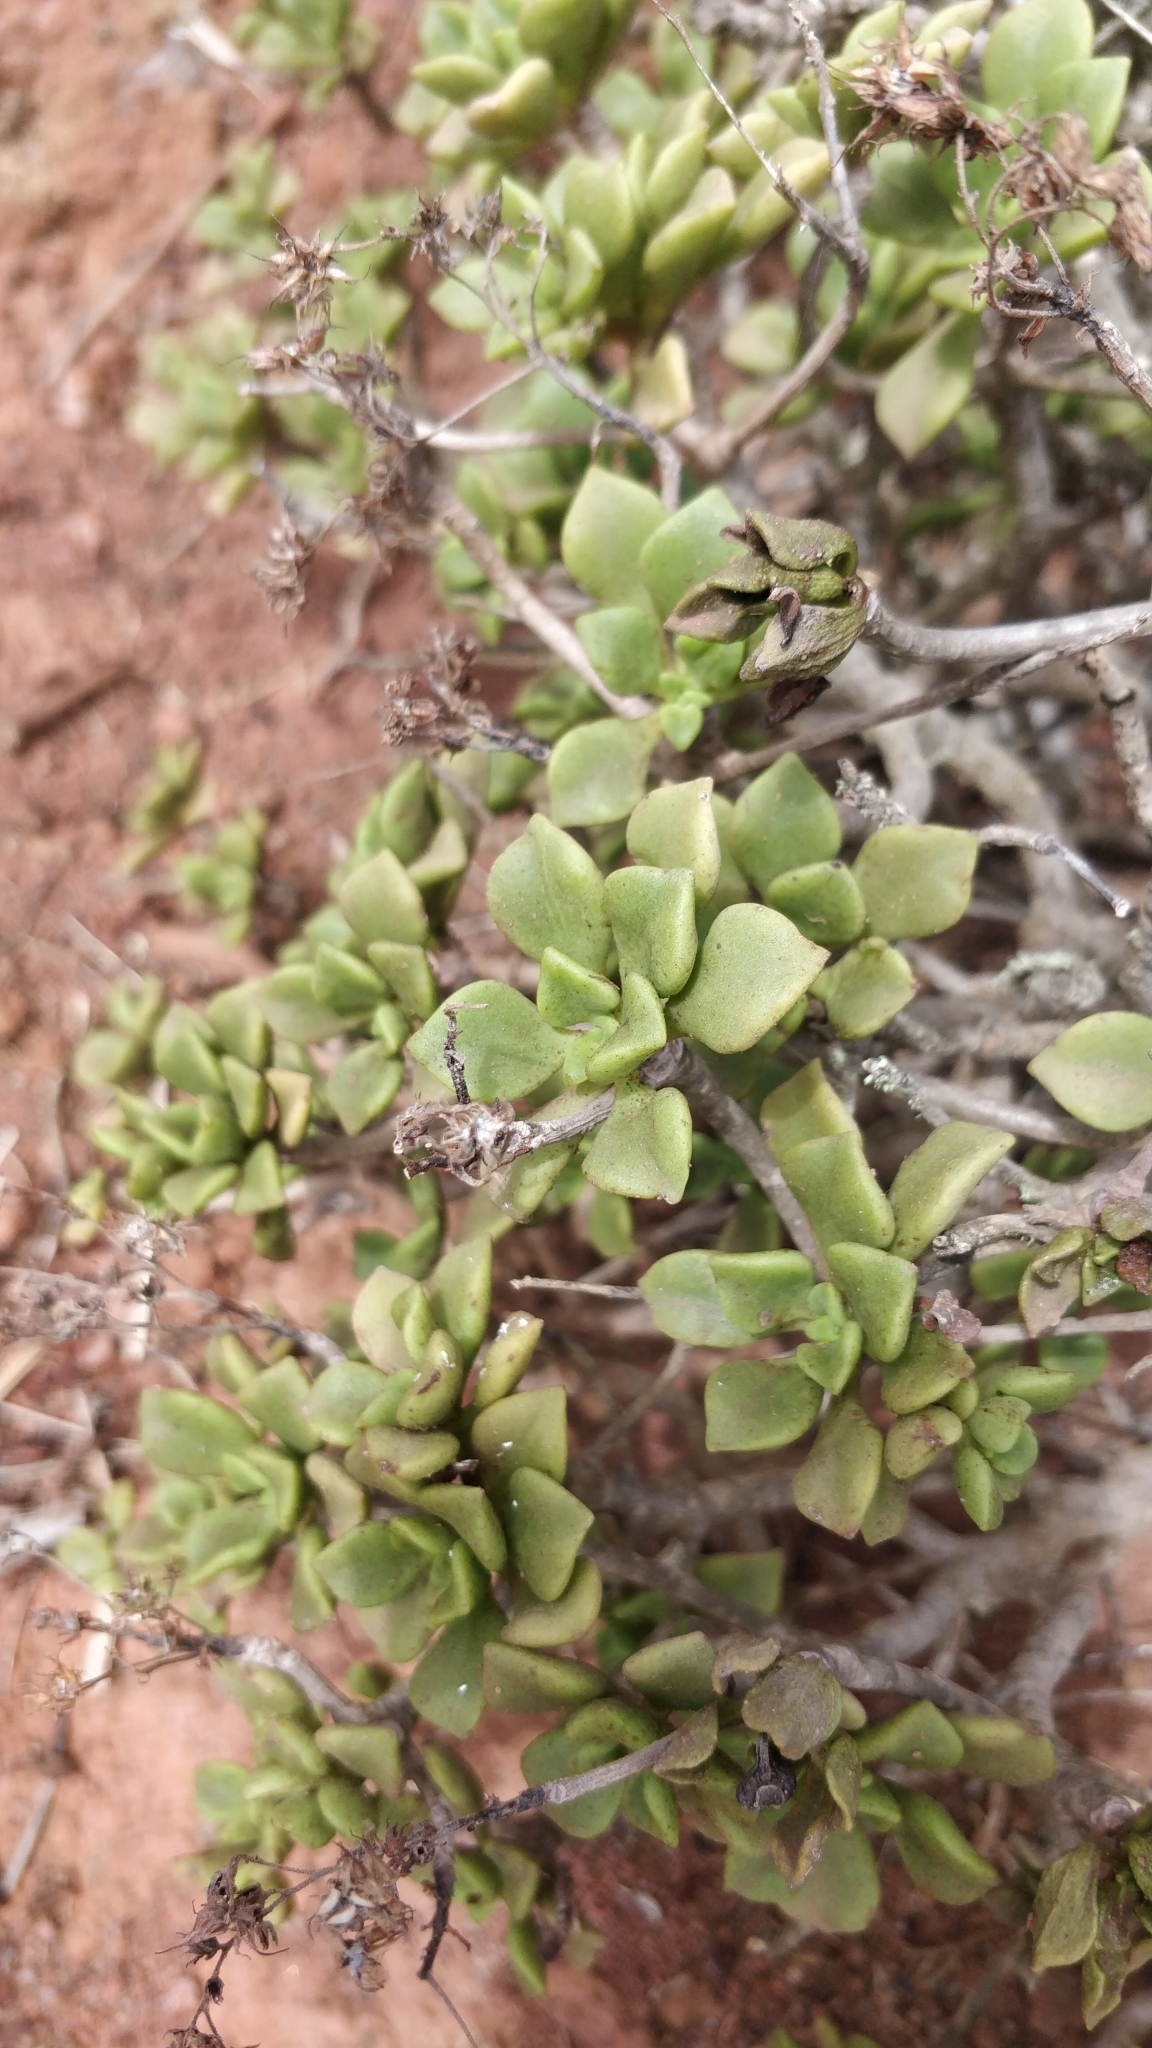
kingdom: Plantae
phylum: Tracheophyta
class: Magnoliopsida
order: Saxifragales
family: Crassulaceae
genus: Aeonium
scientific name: Aeonium lindleyi
